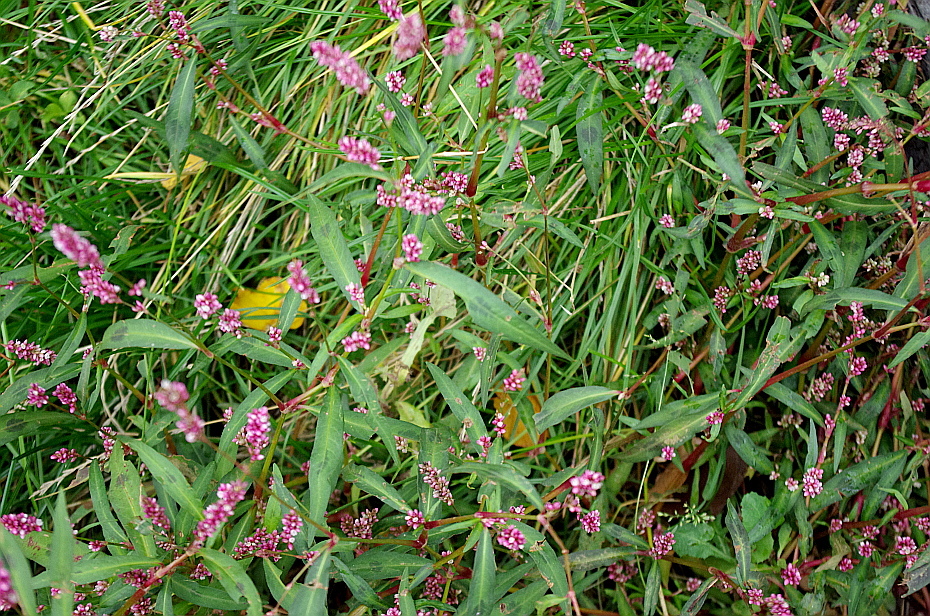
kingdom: Plantae
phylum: Tracheophyta
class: Magnoliopsida
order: Caryophyllales
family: Polygonaceae
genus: Persicaria
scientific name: Persicaria maculosa
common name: Redshank
